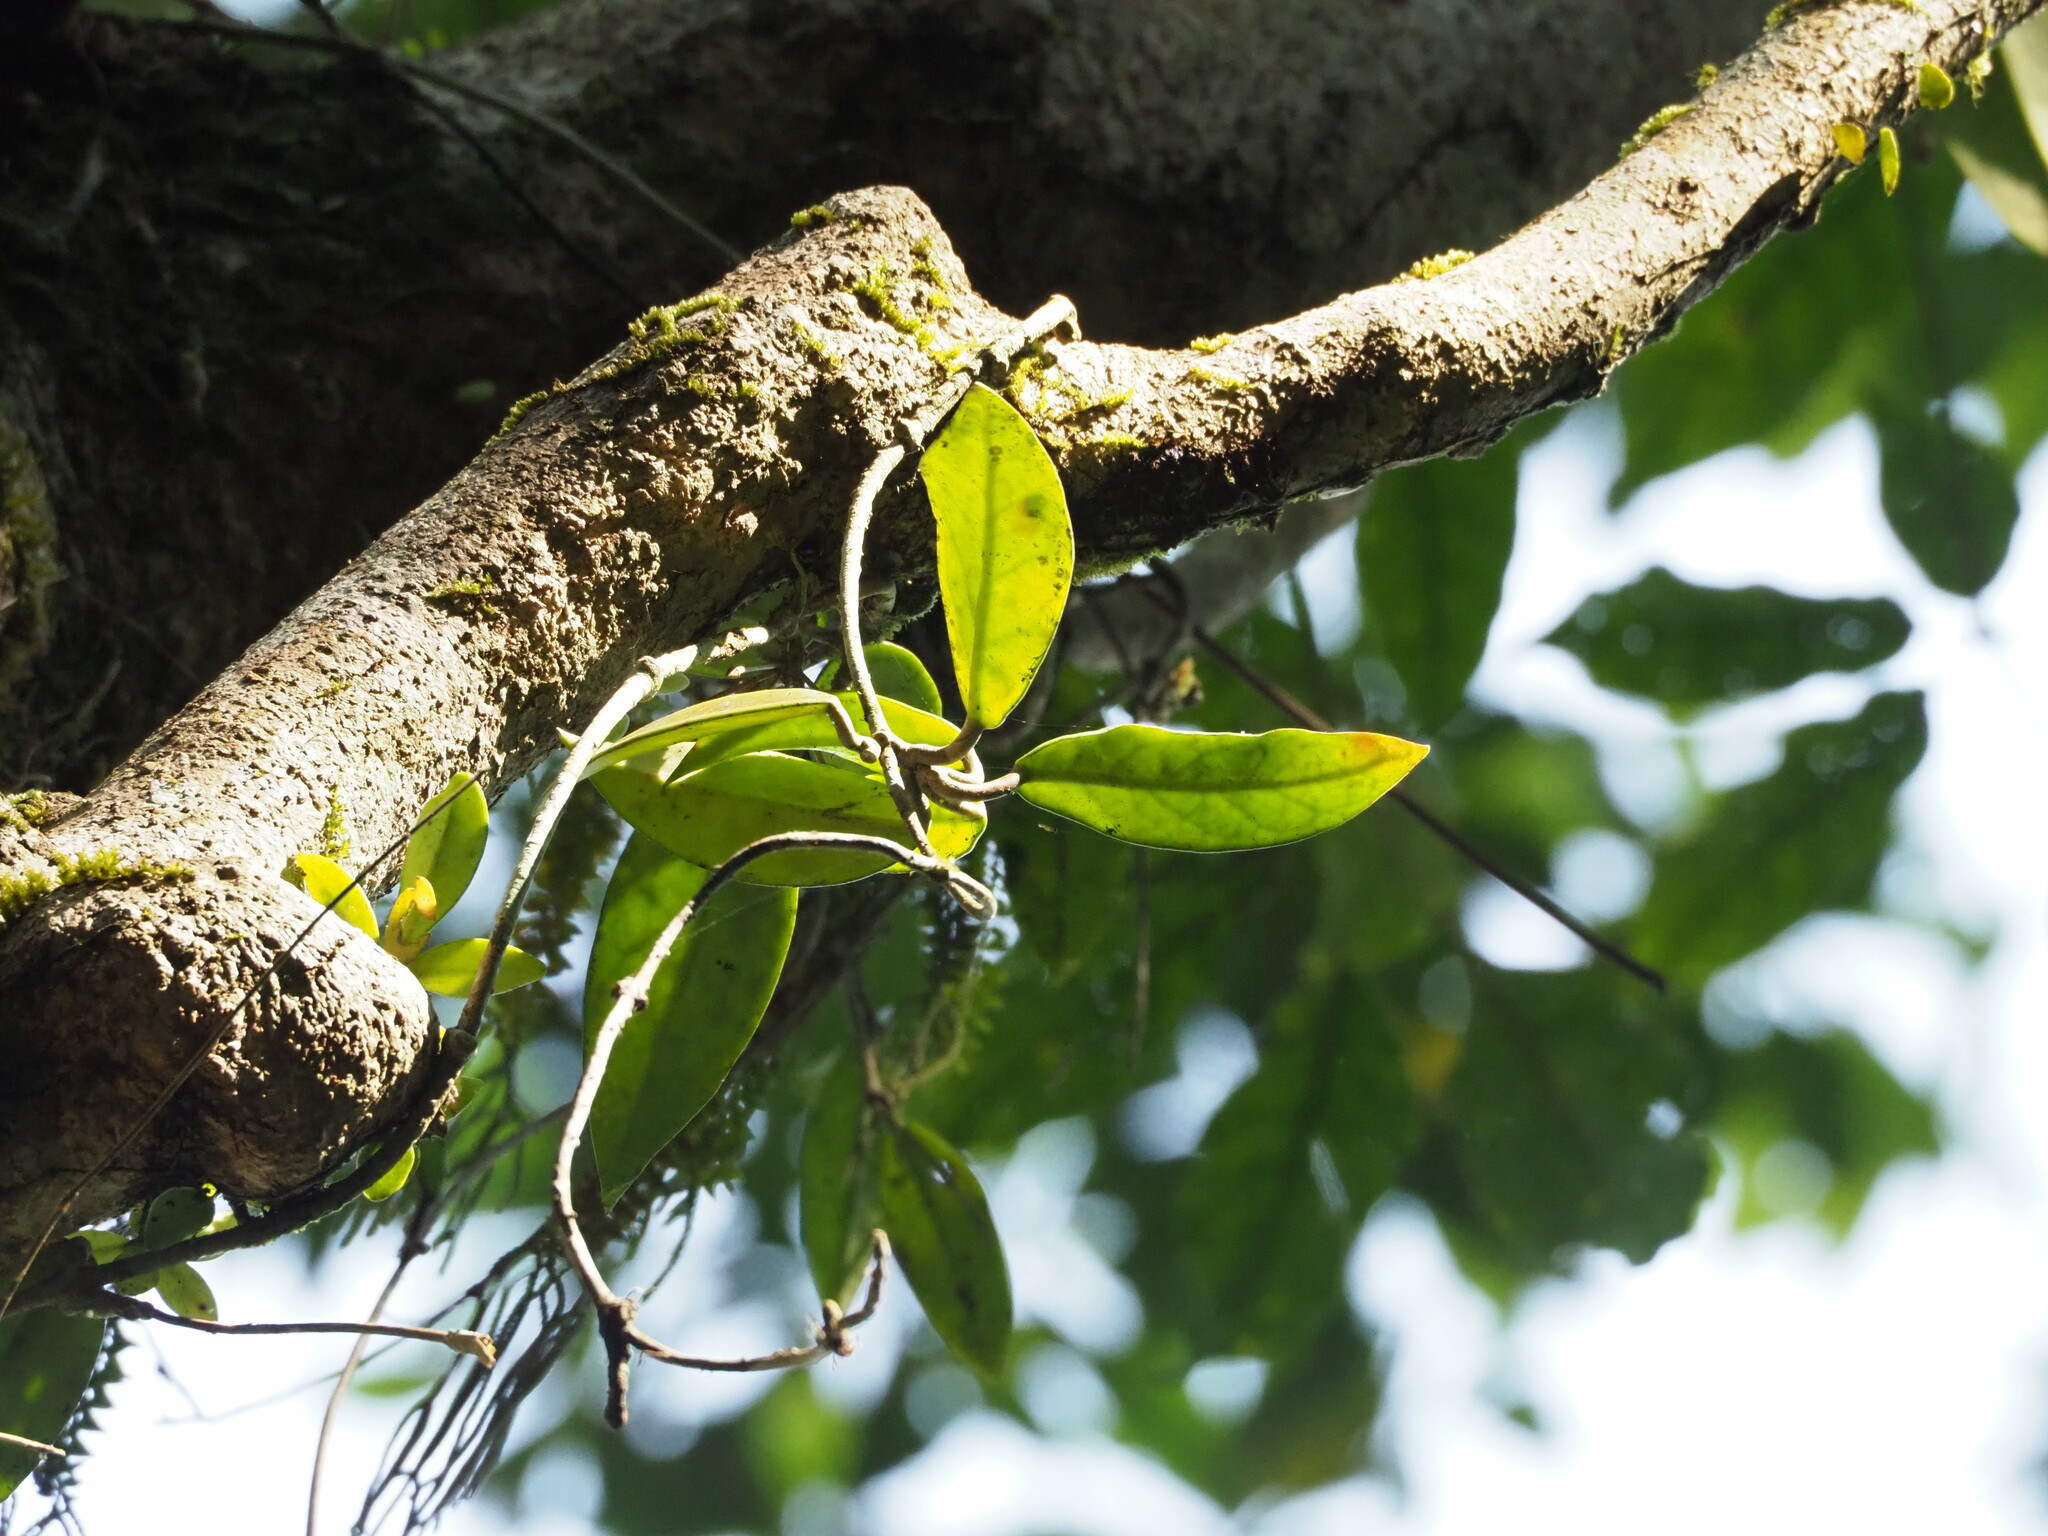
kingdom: Plantae
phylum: Tracheophyta
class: Magnoliopsida
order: Gentianales
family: Apocynaceae
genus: Hoya
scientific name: Hoya carnosa
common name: Honeyplant
